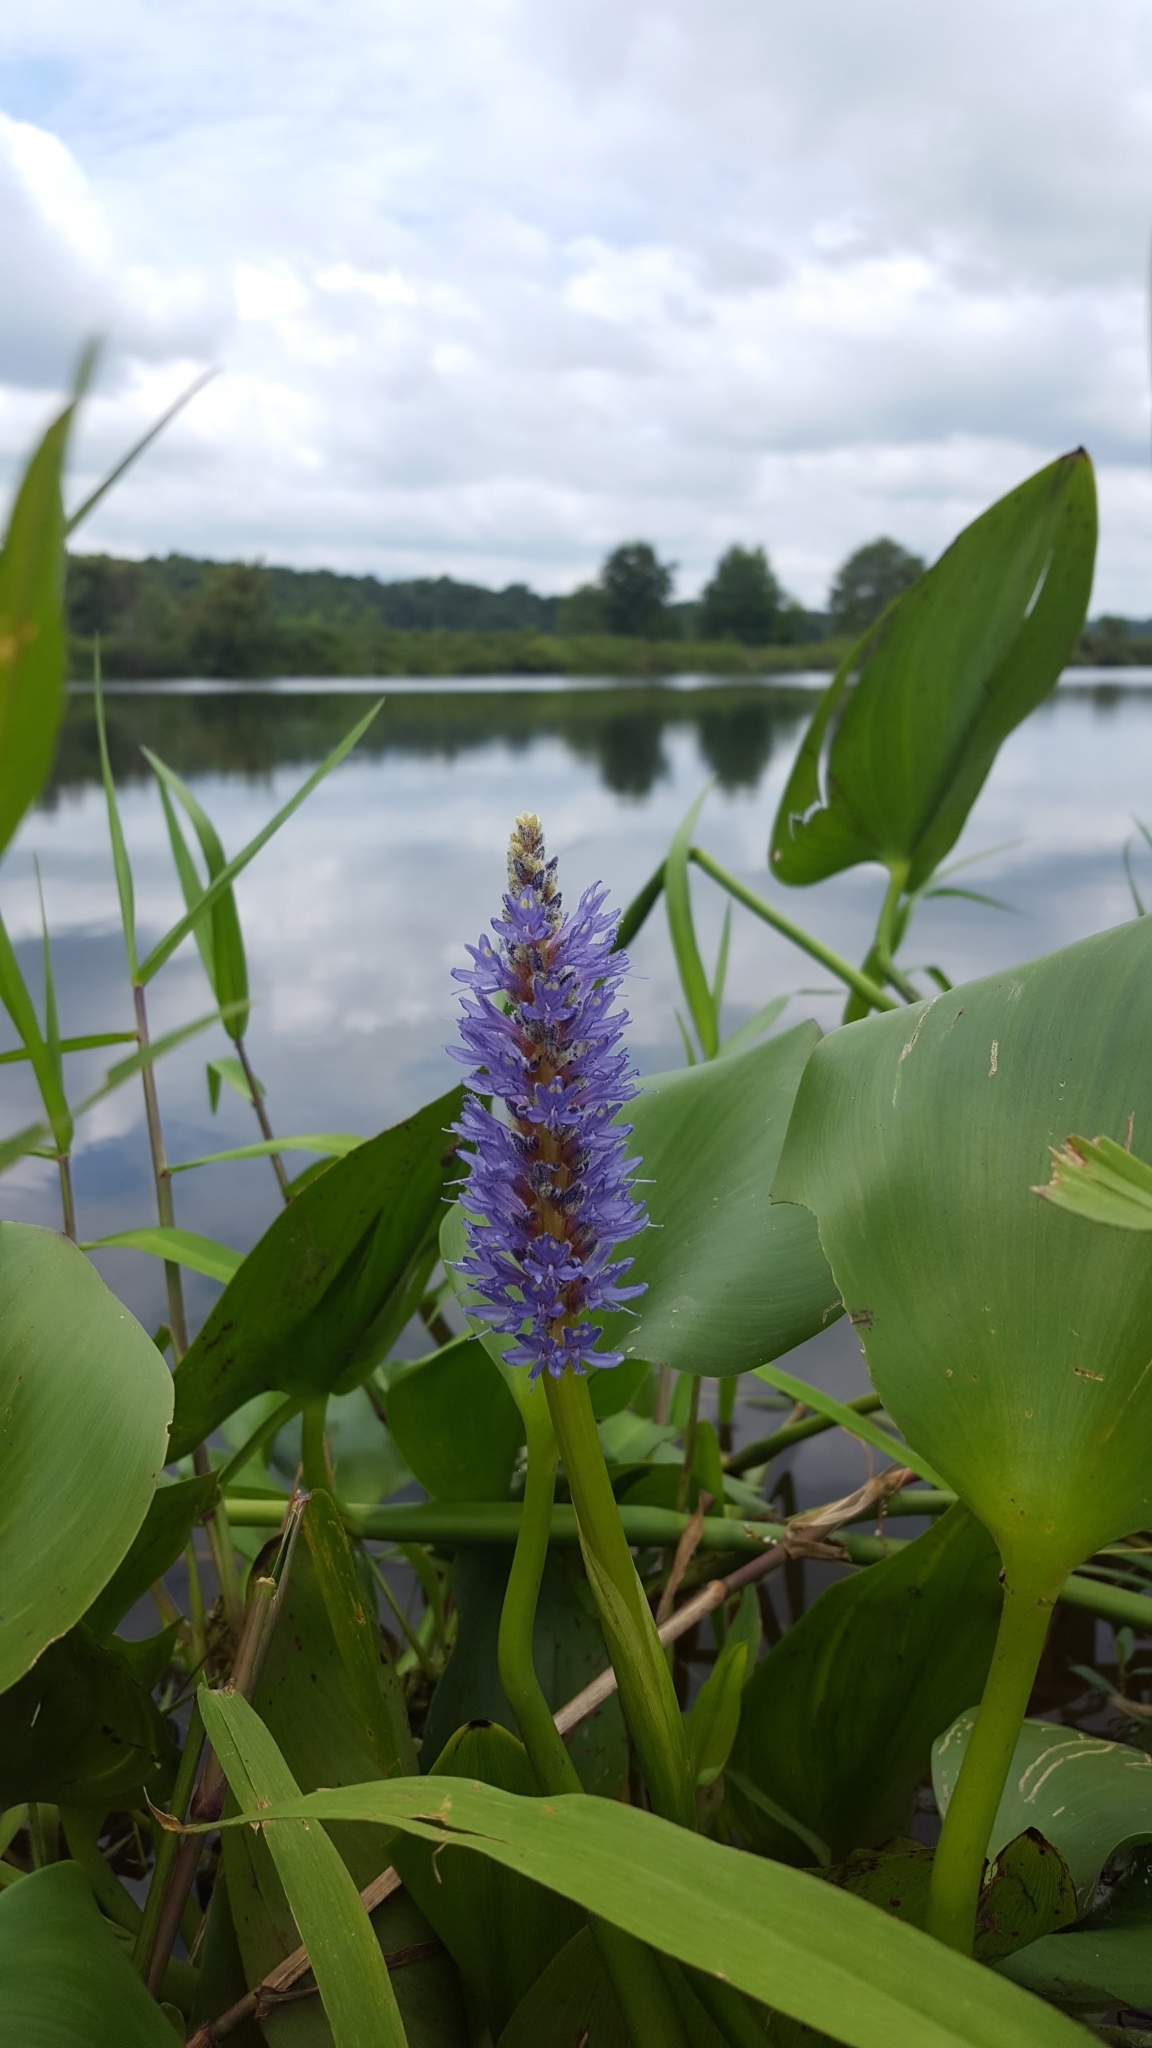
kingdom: Plantae
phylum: Tracheophyta
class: Liliopsida
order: Commelinales
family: Pontederiaceae
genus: Pontederia
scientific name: Pontederia cordata
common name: Pickerelweed
